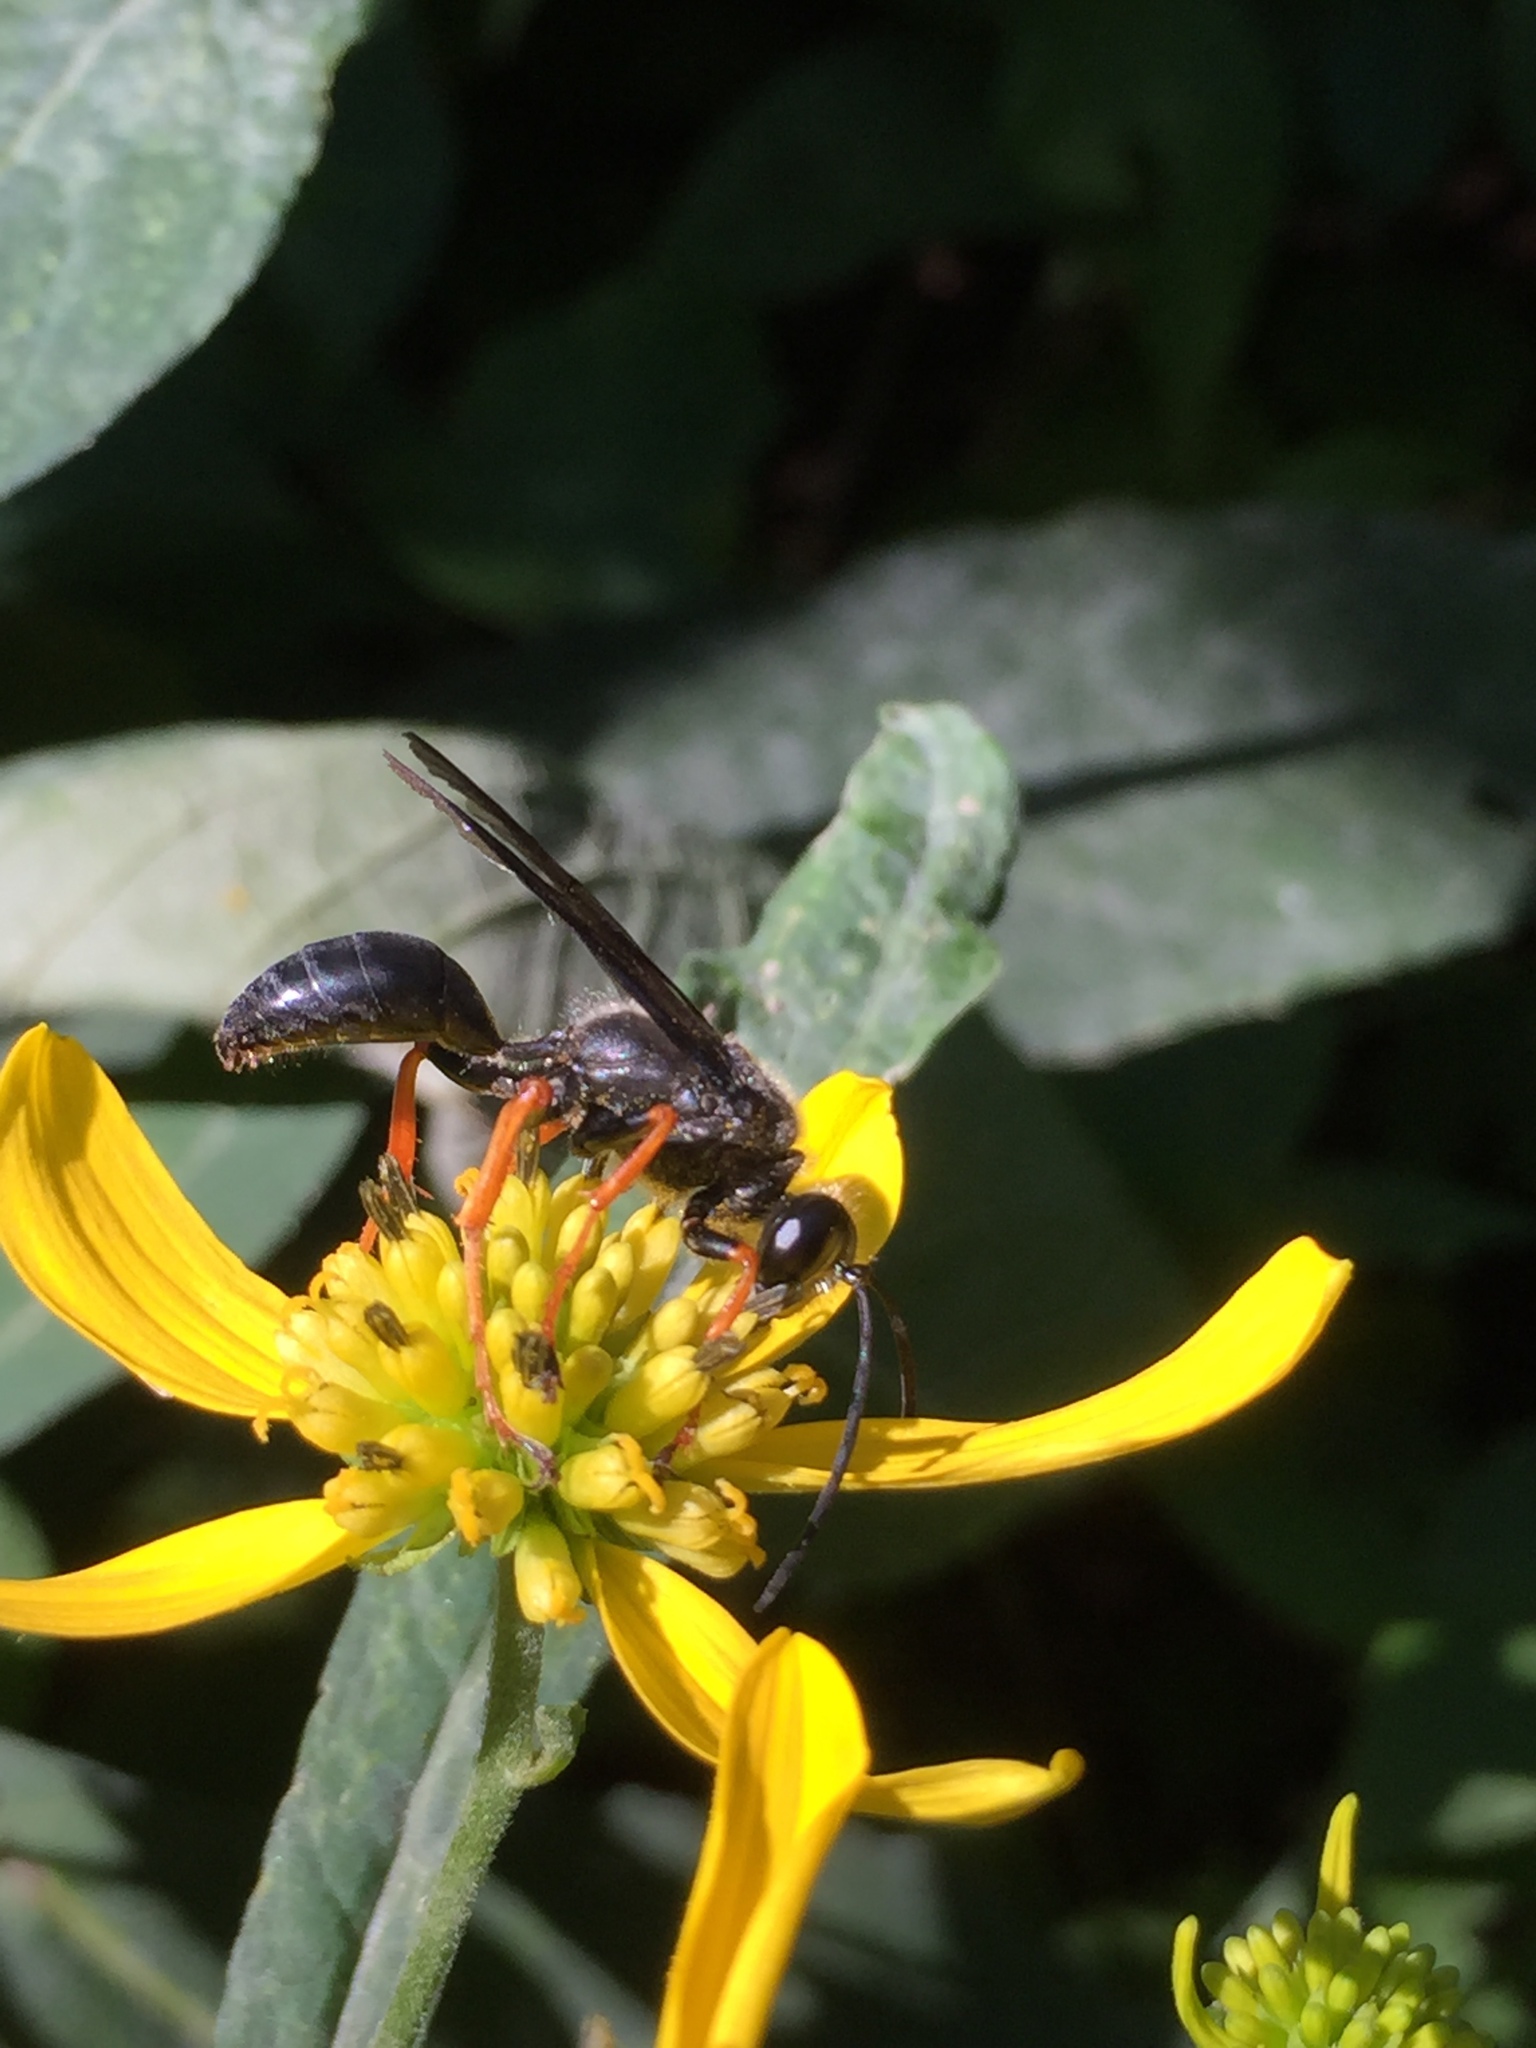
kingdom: Animalia
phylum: Arthropoda
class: Insecta
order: Hymenoptera
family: Sphecidae
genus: Sphex
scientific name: Sphex nudus
